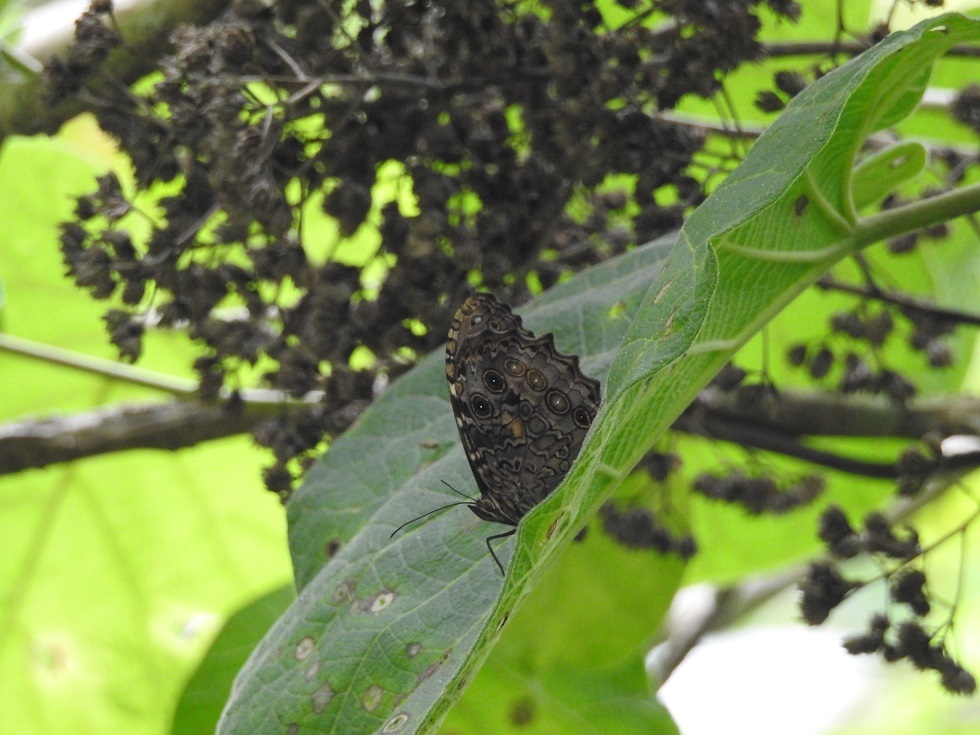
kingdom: Animalia
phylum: Arthropoda
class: Insecta
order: Lepidoptera
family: Nymphalidae
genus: Manataria
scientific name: Manataria maculata
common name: White-spotted satyr
